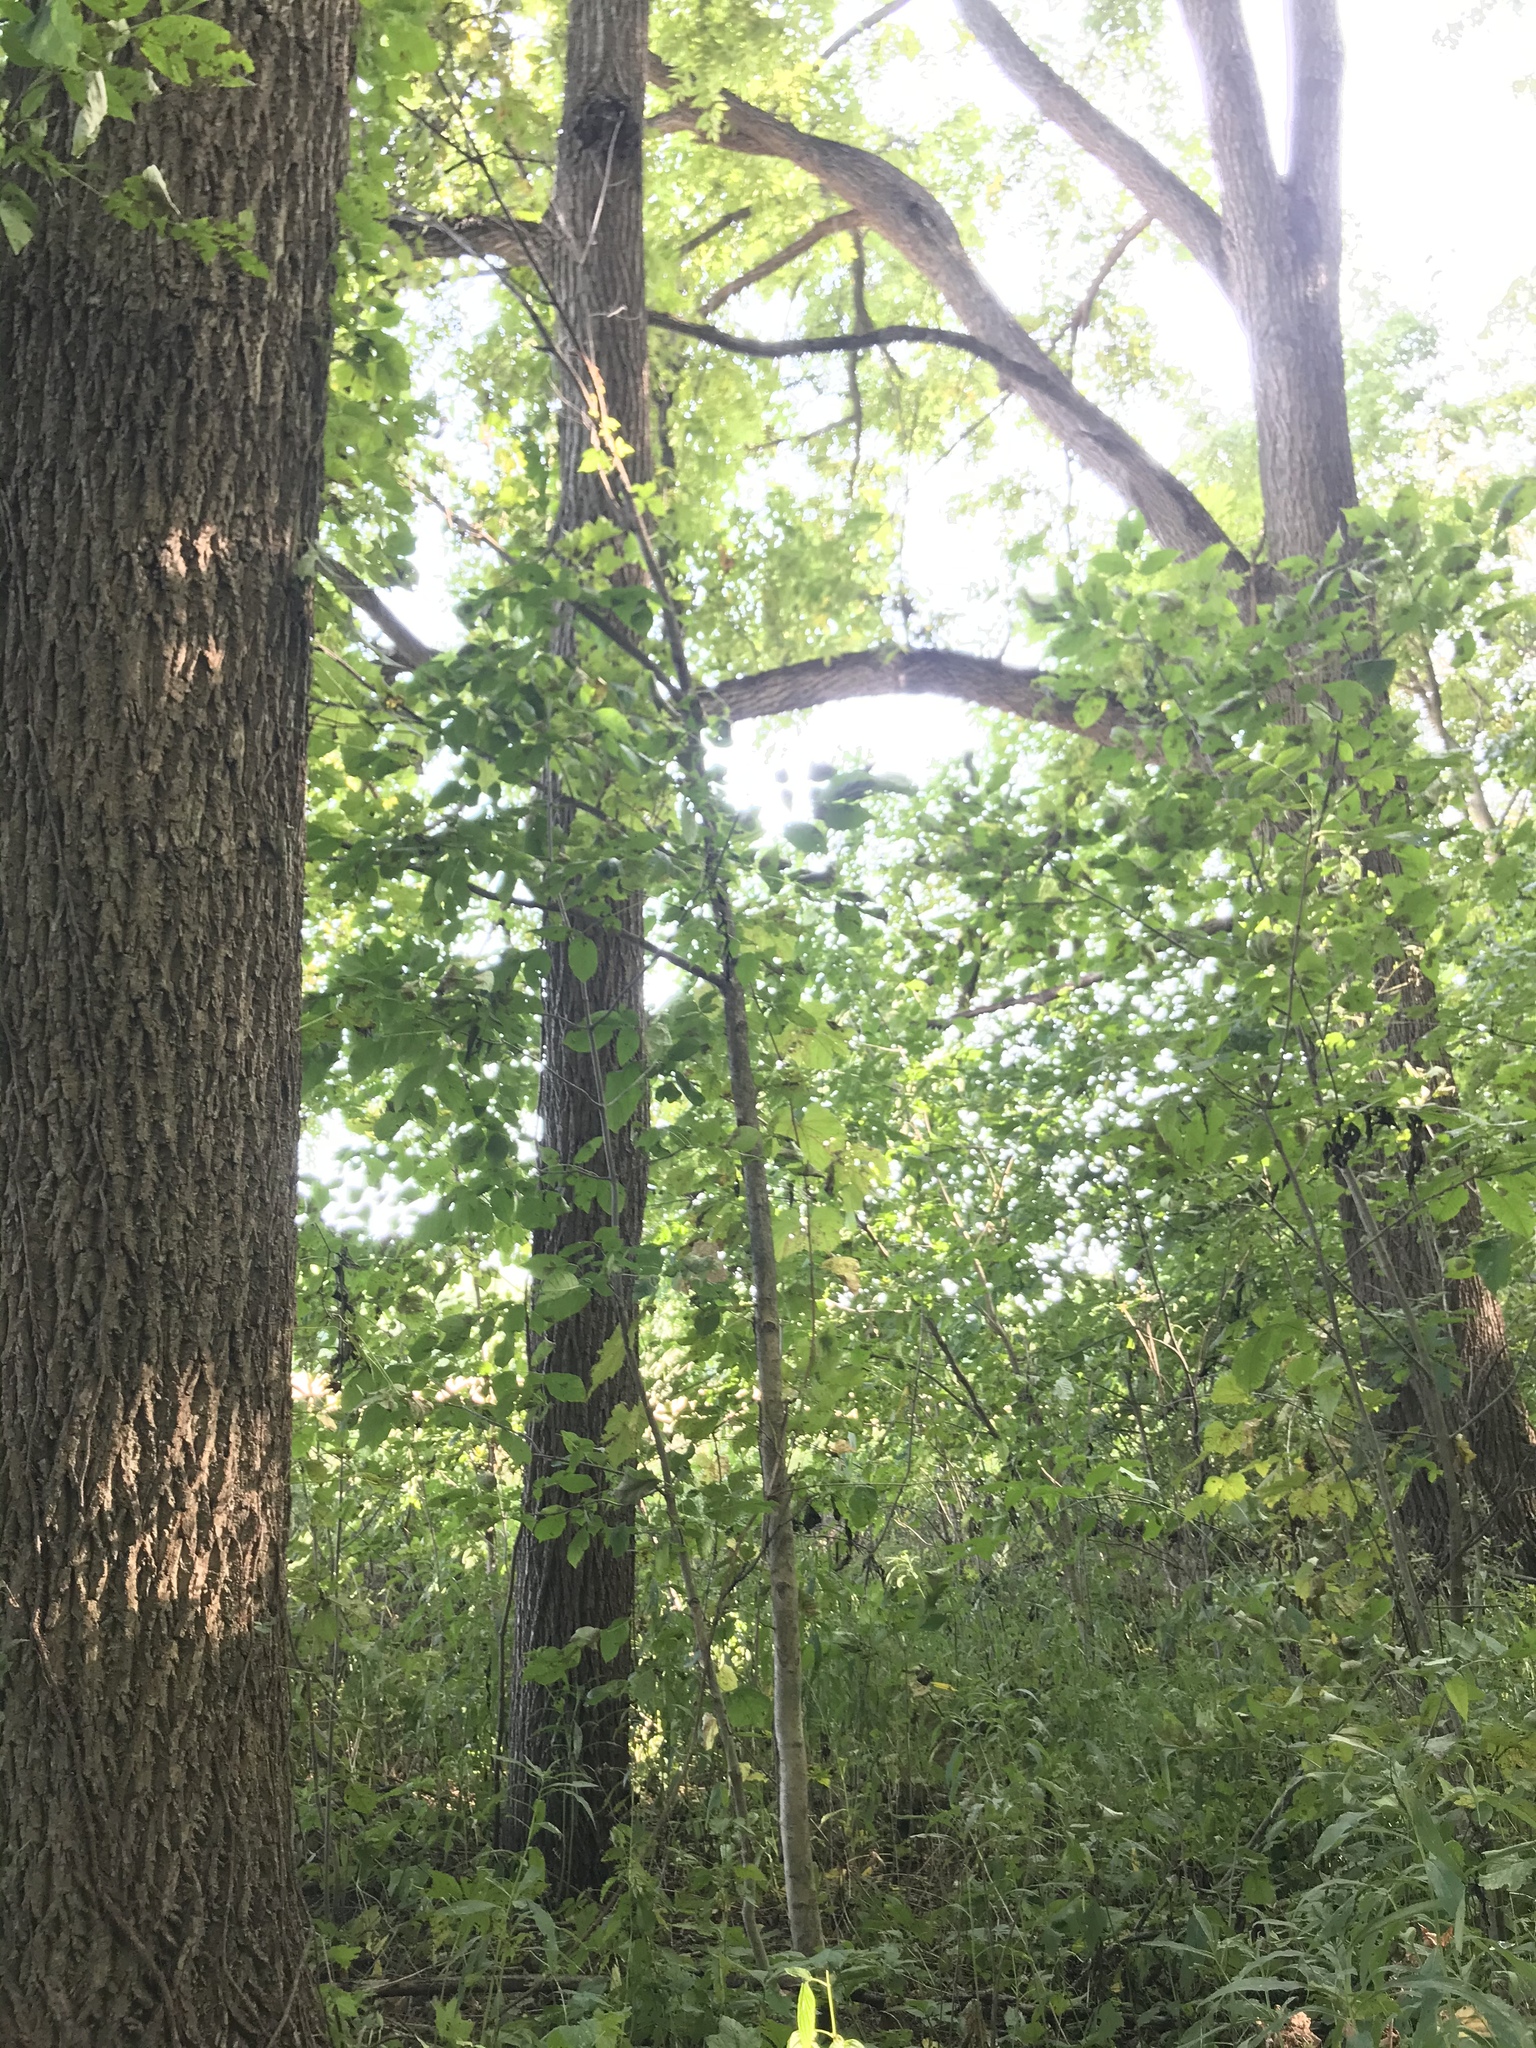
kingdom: Plantae
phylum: Tracheophyta
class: Magnoliopsida
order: Fagales
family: Juglandaceae
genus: Juglans
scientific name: Juglans nigra
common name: Black walnut
